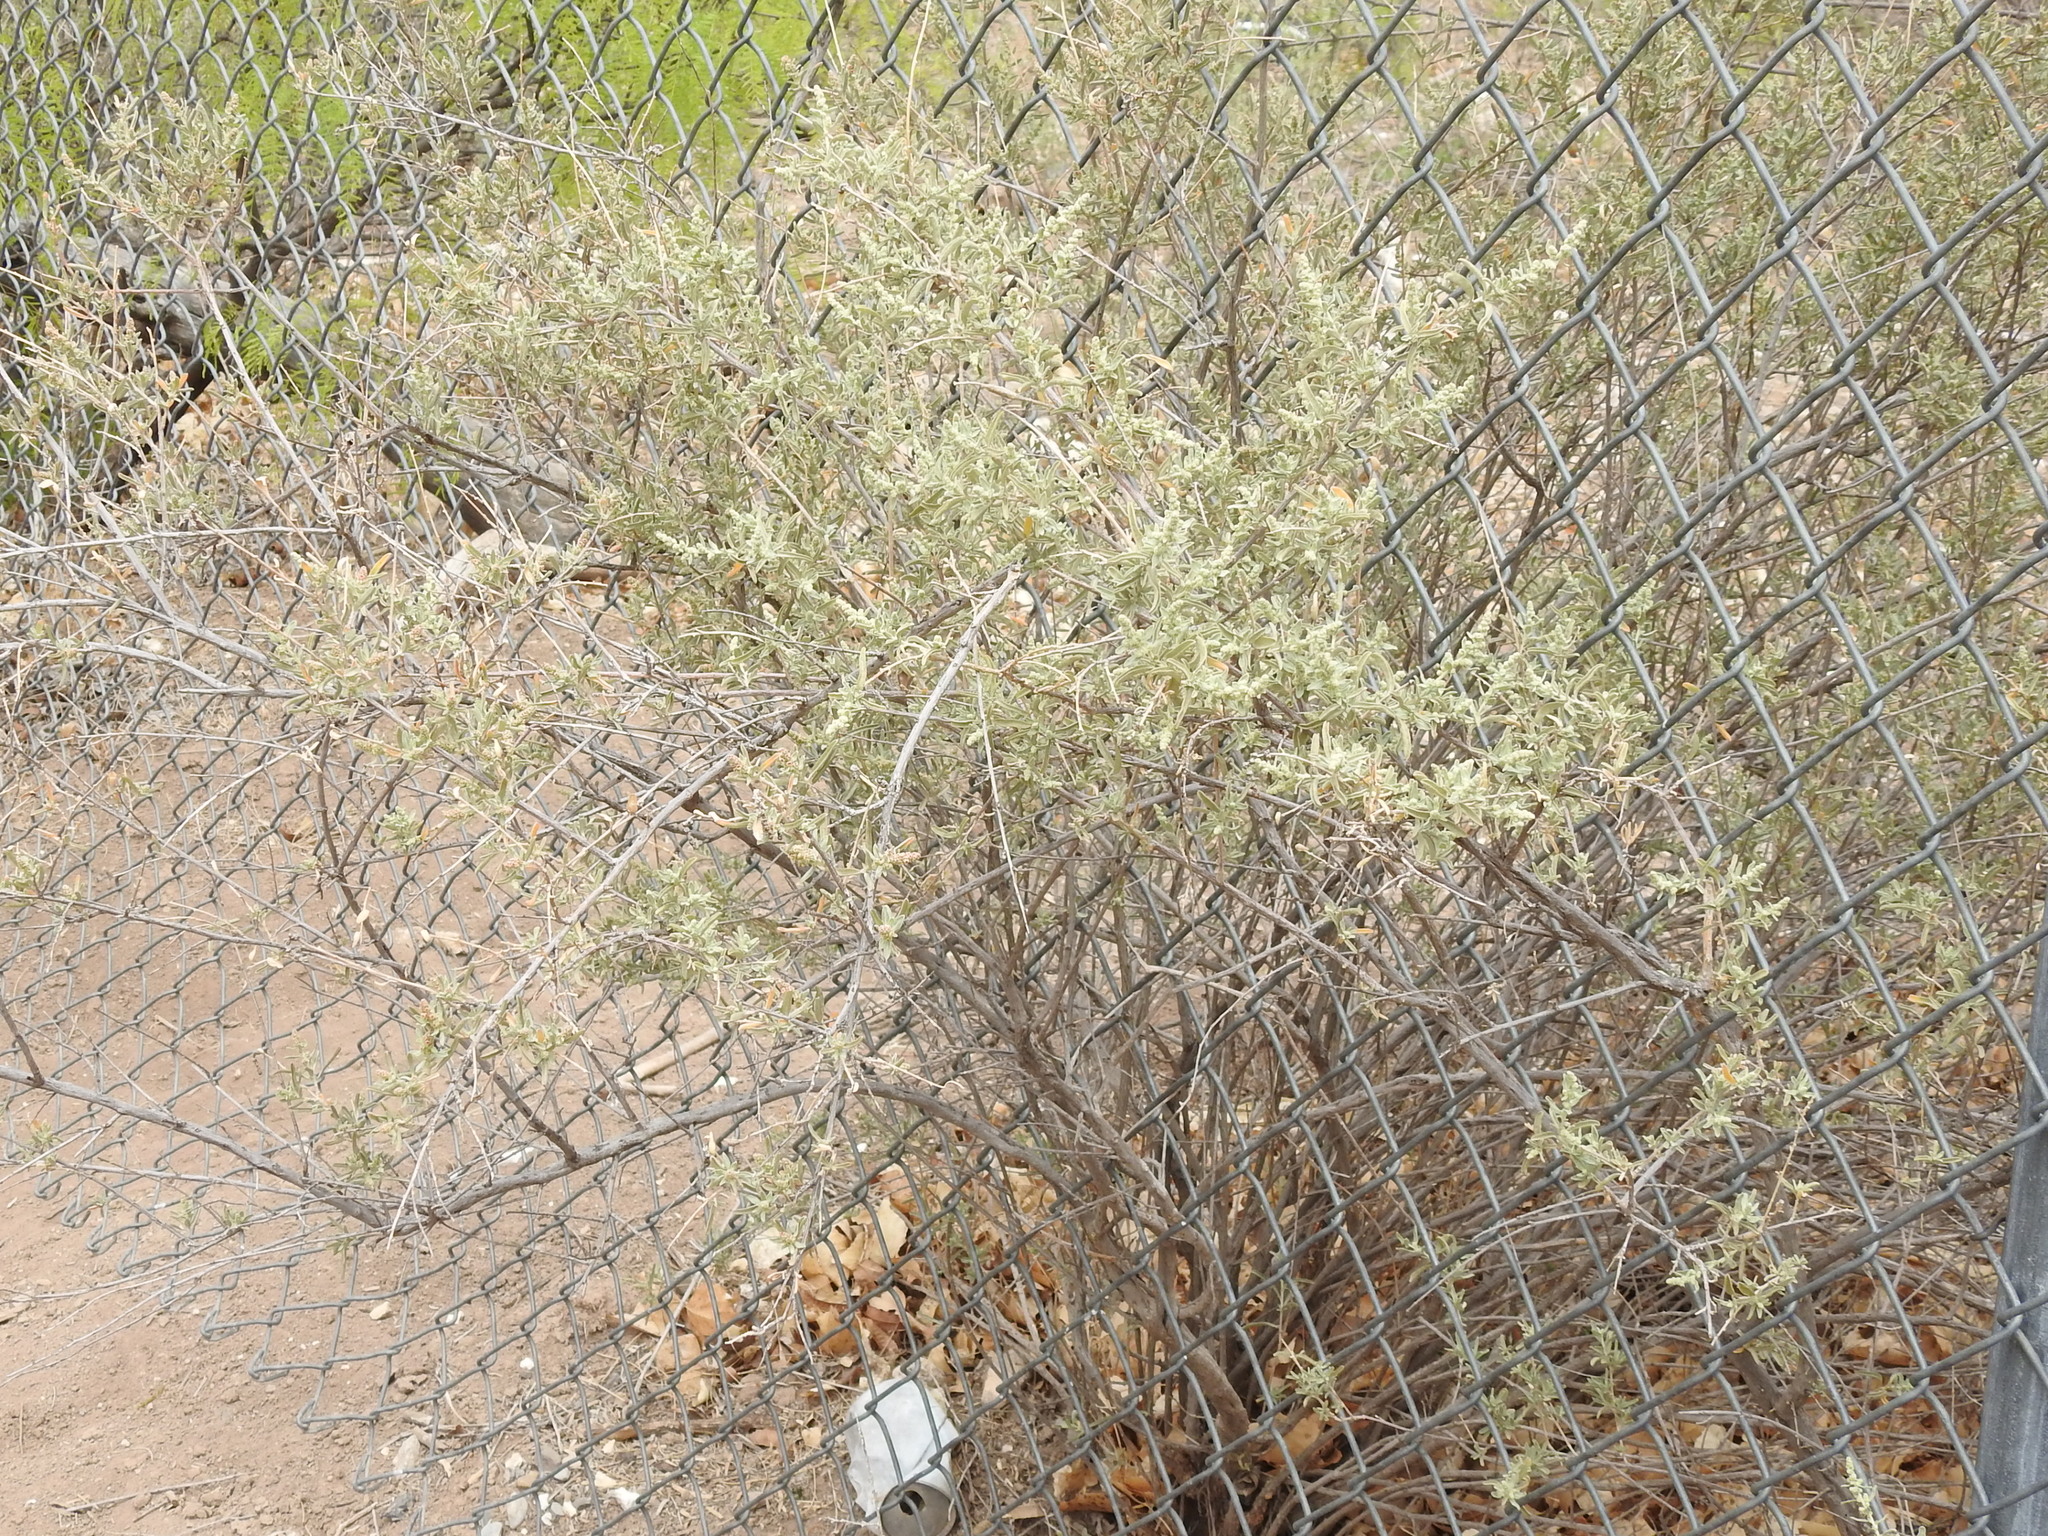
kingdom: Plantae
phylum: Tracheophyta
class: Magnoliopsida
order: Caryophyllales
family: Amaranthaceae
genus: Atriplex
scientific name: Atriplex canescens
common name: Four-wing saltbush
